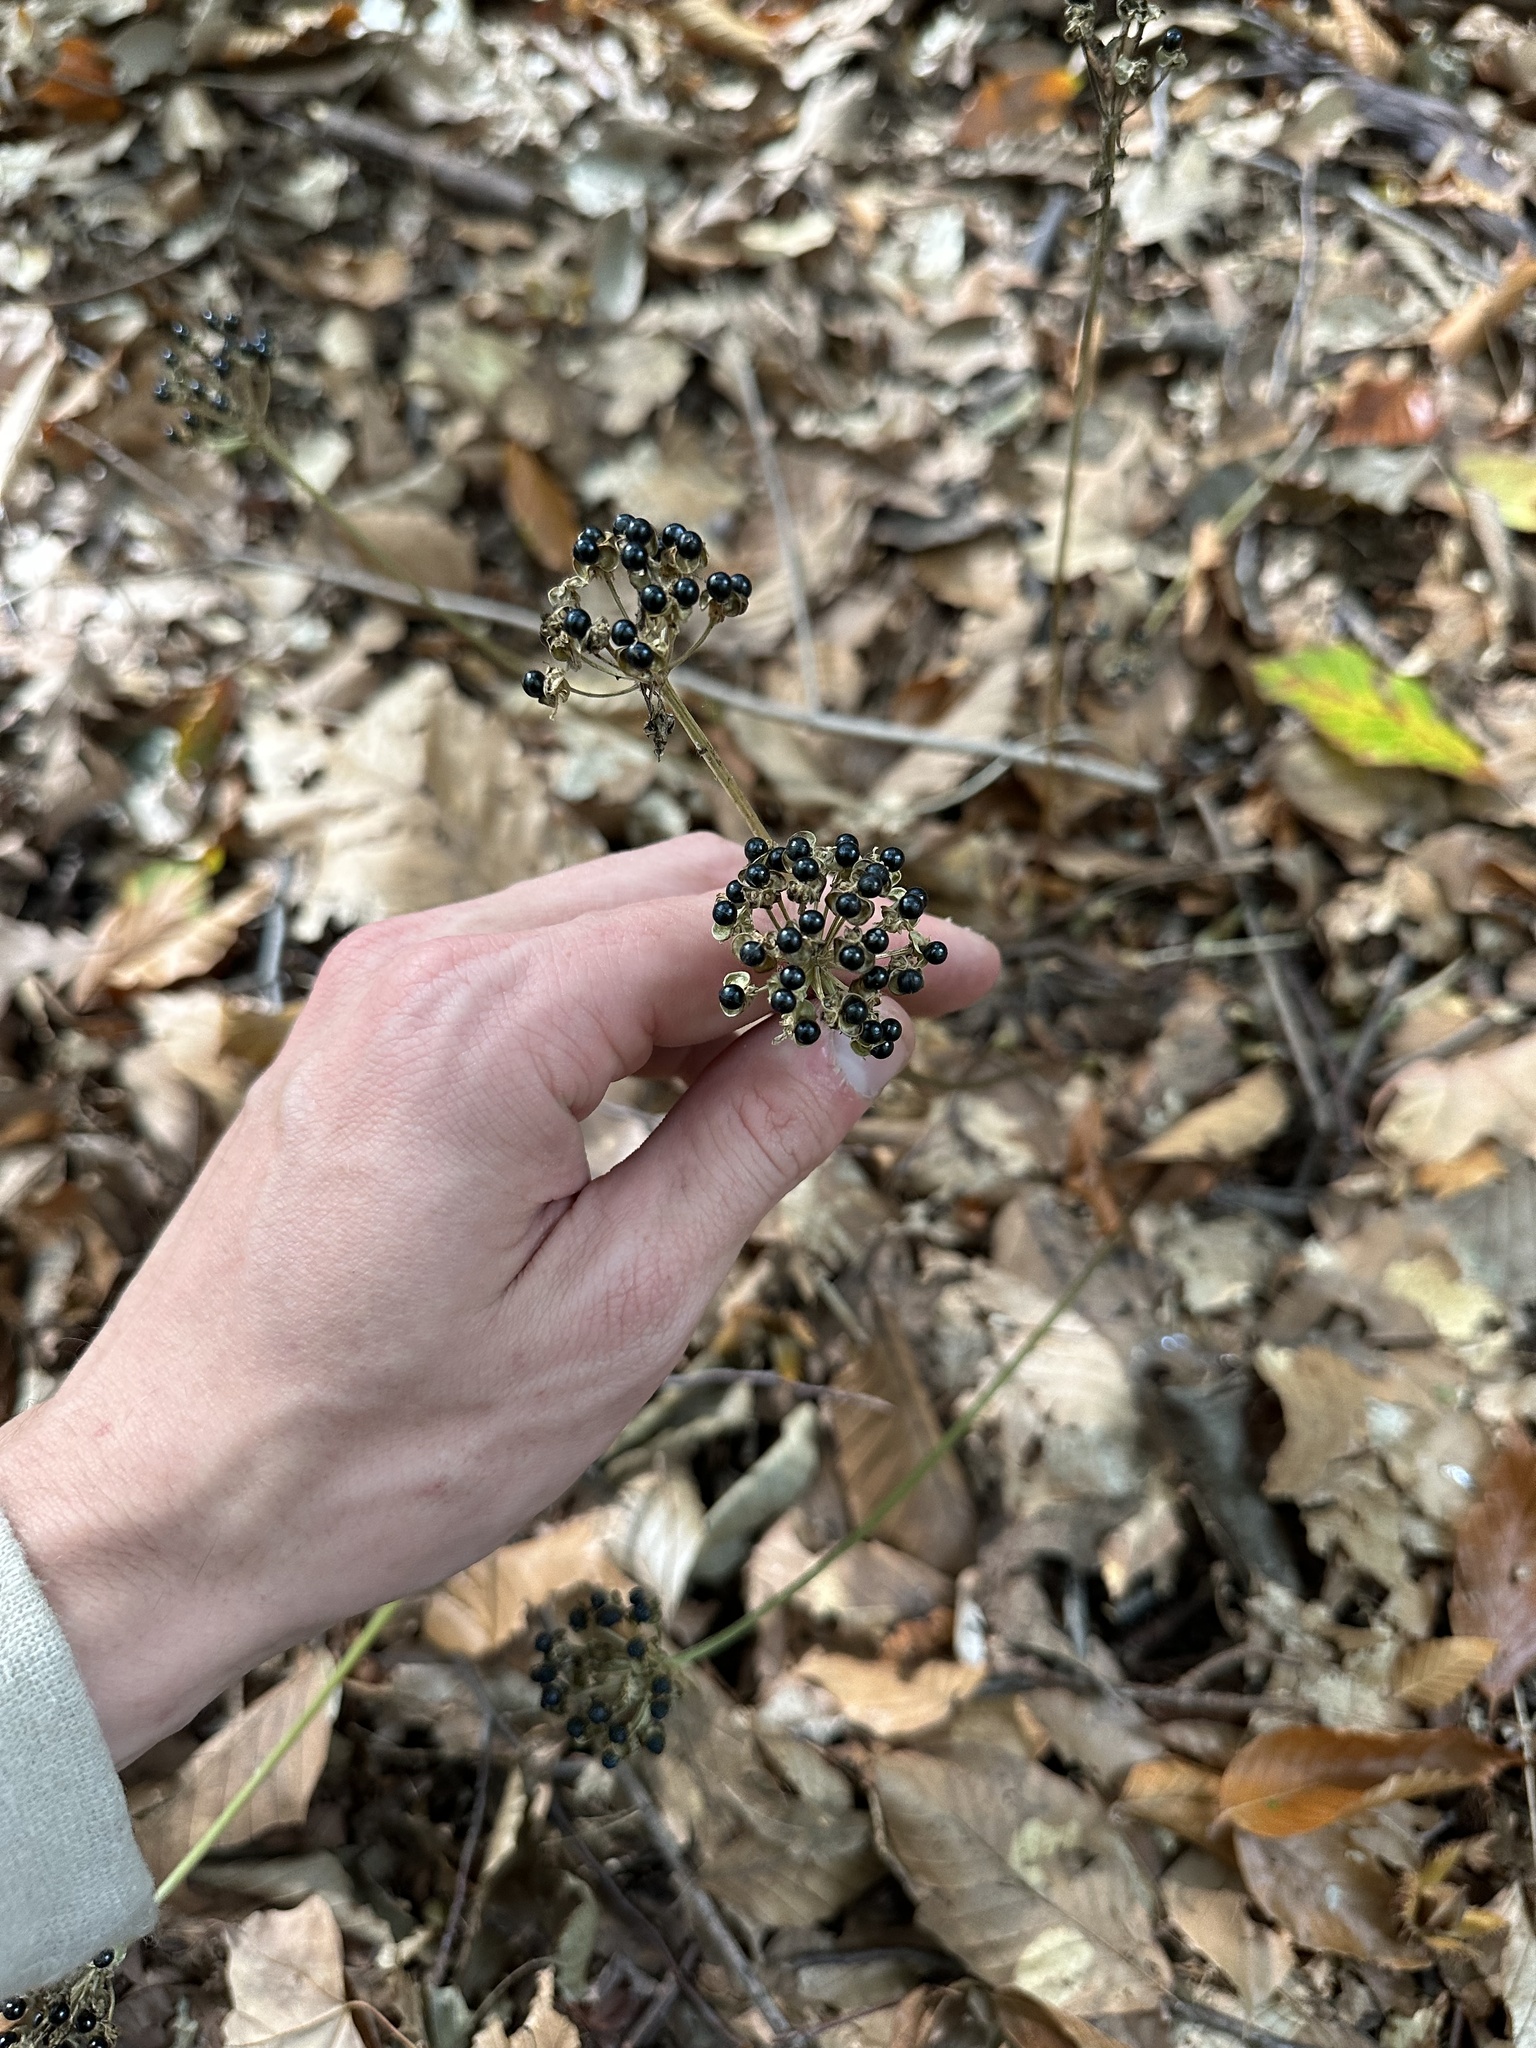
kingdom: Plantae
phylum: Tracheophyta
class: Liliopsida
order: Asparagales
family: Amaryllidaceae
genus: Allium
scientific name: Allium tricoccum
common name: Ramp
